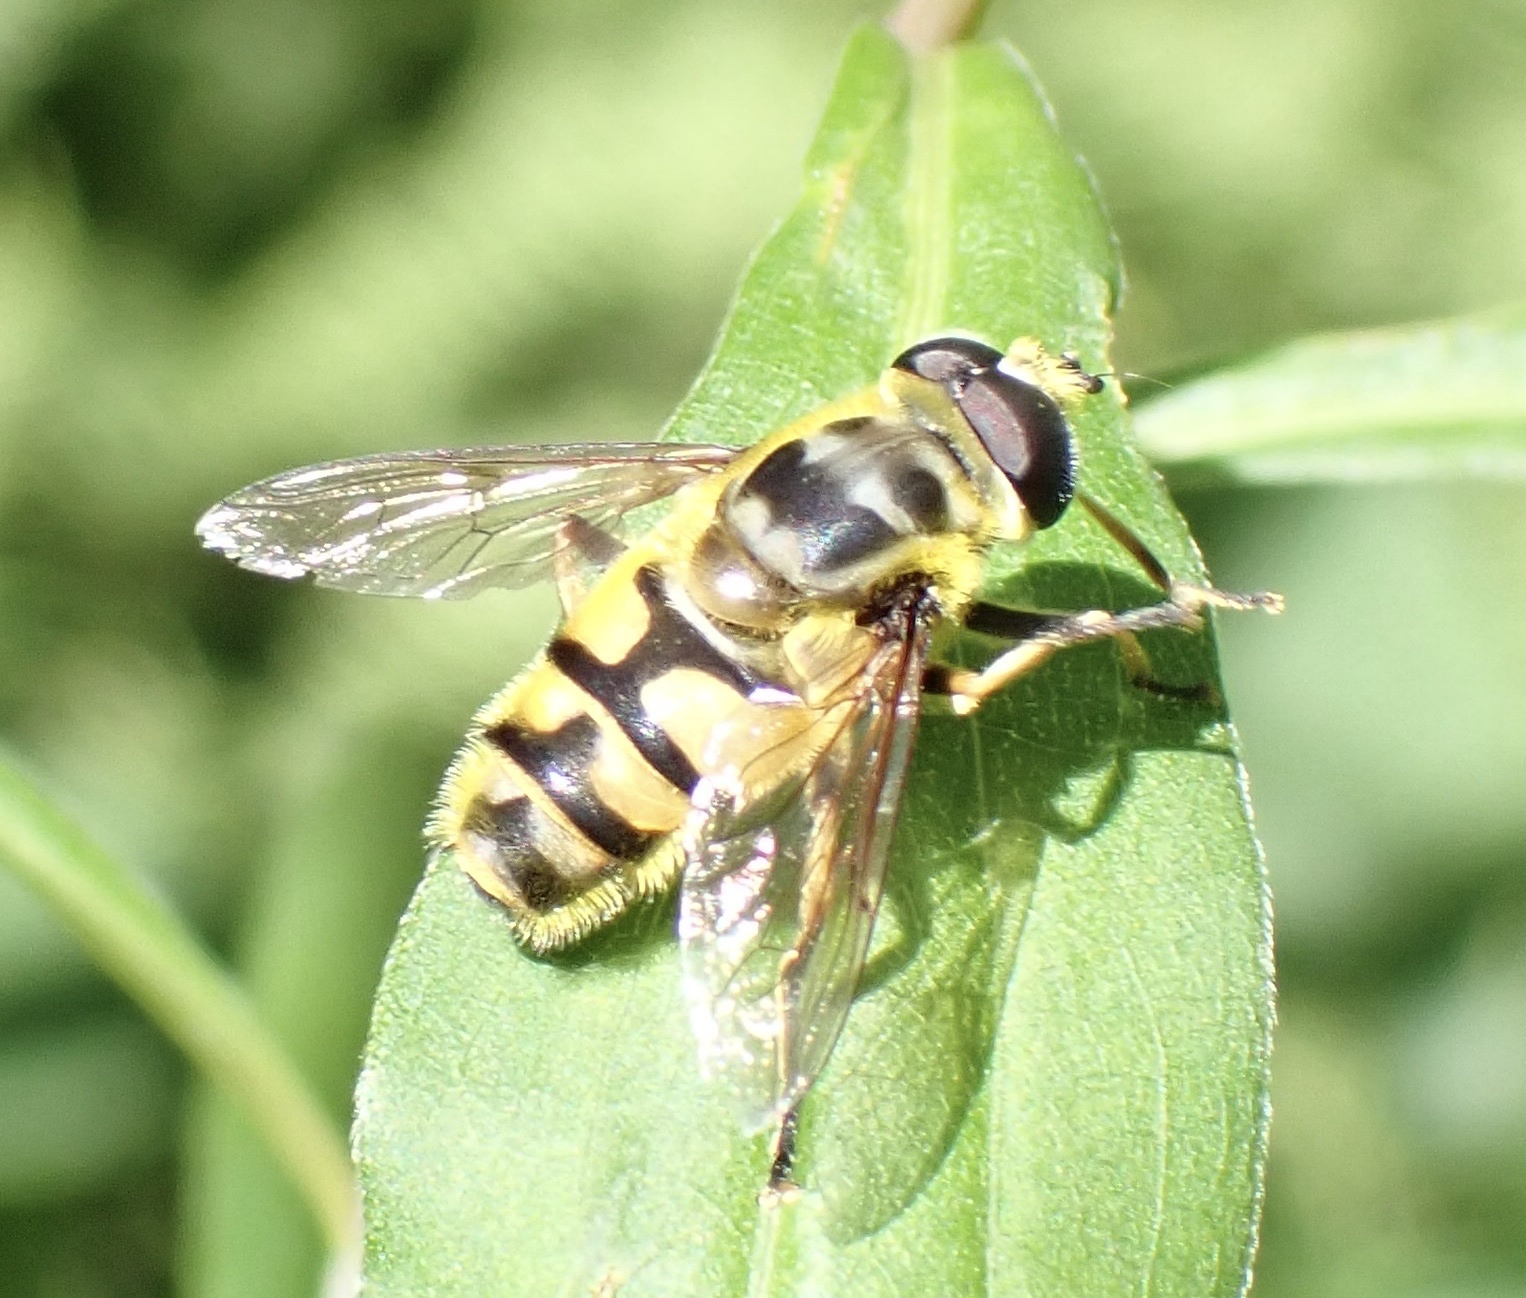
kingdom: Animalia
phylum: Arthropoda
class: Insecta
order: Diptera
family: Syrphidae
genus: Myathropa
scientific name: Myathropa florea
